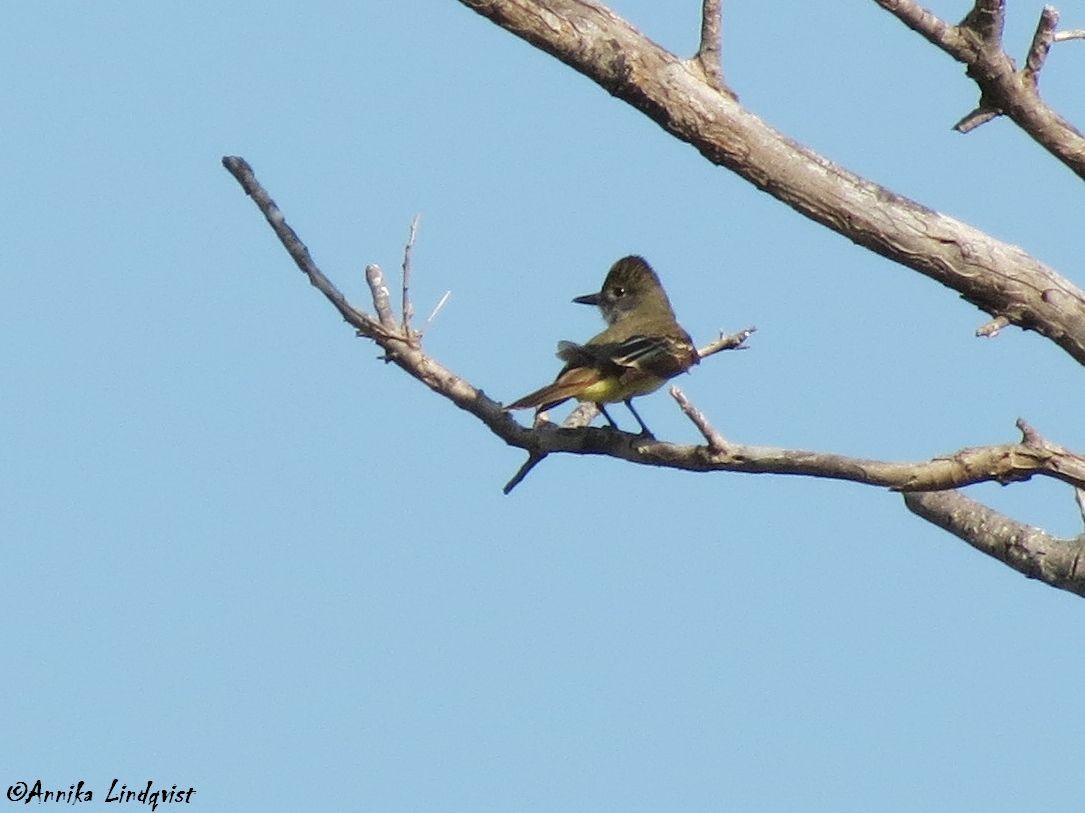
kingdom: Animalia
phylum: Chordata
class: Aves
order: Passeriformes
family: Tyrannidae
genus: Myiarchus
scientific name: Myiarchus crinitus
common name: Great crested flycatcher
